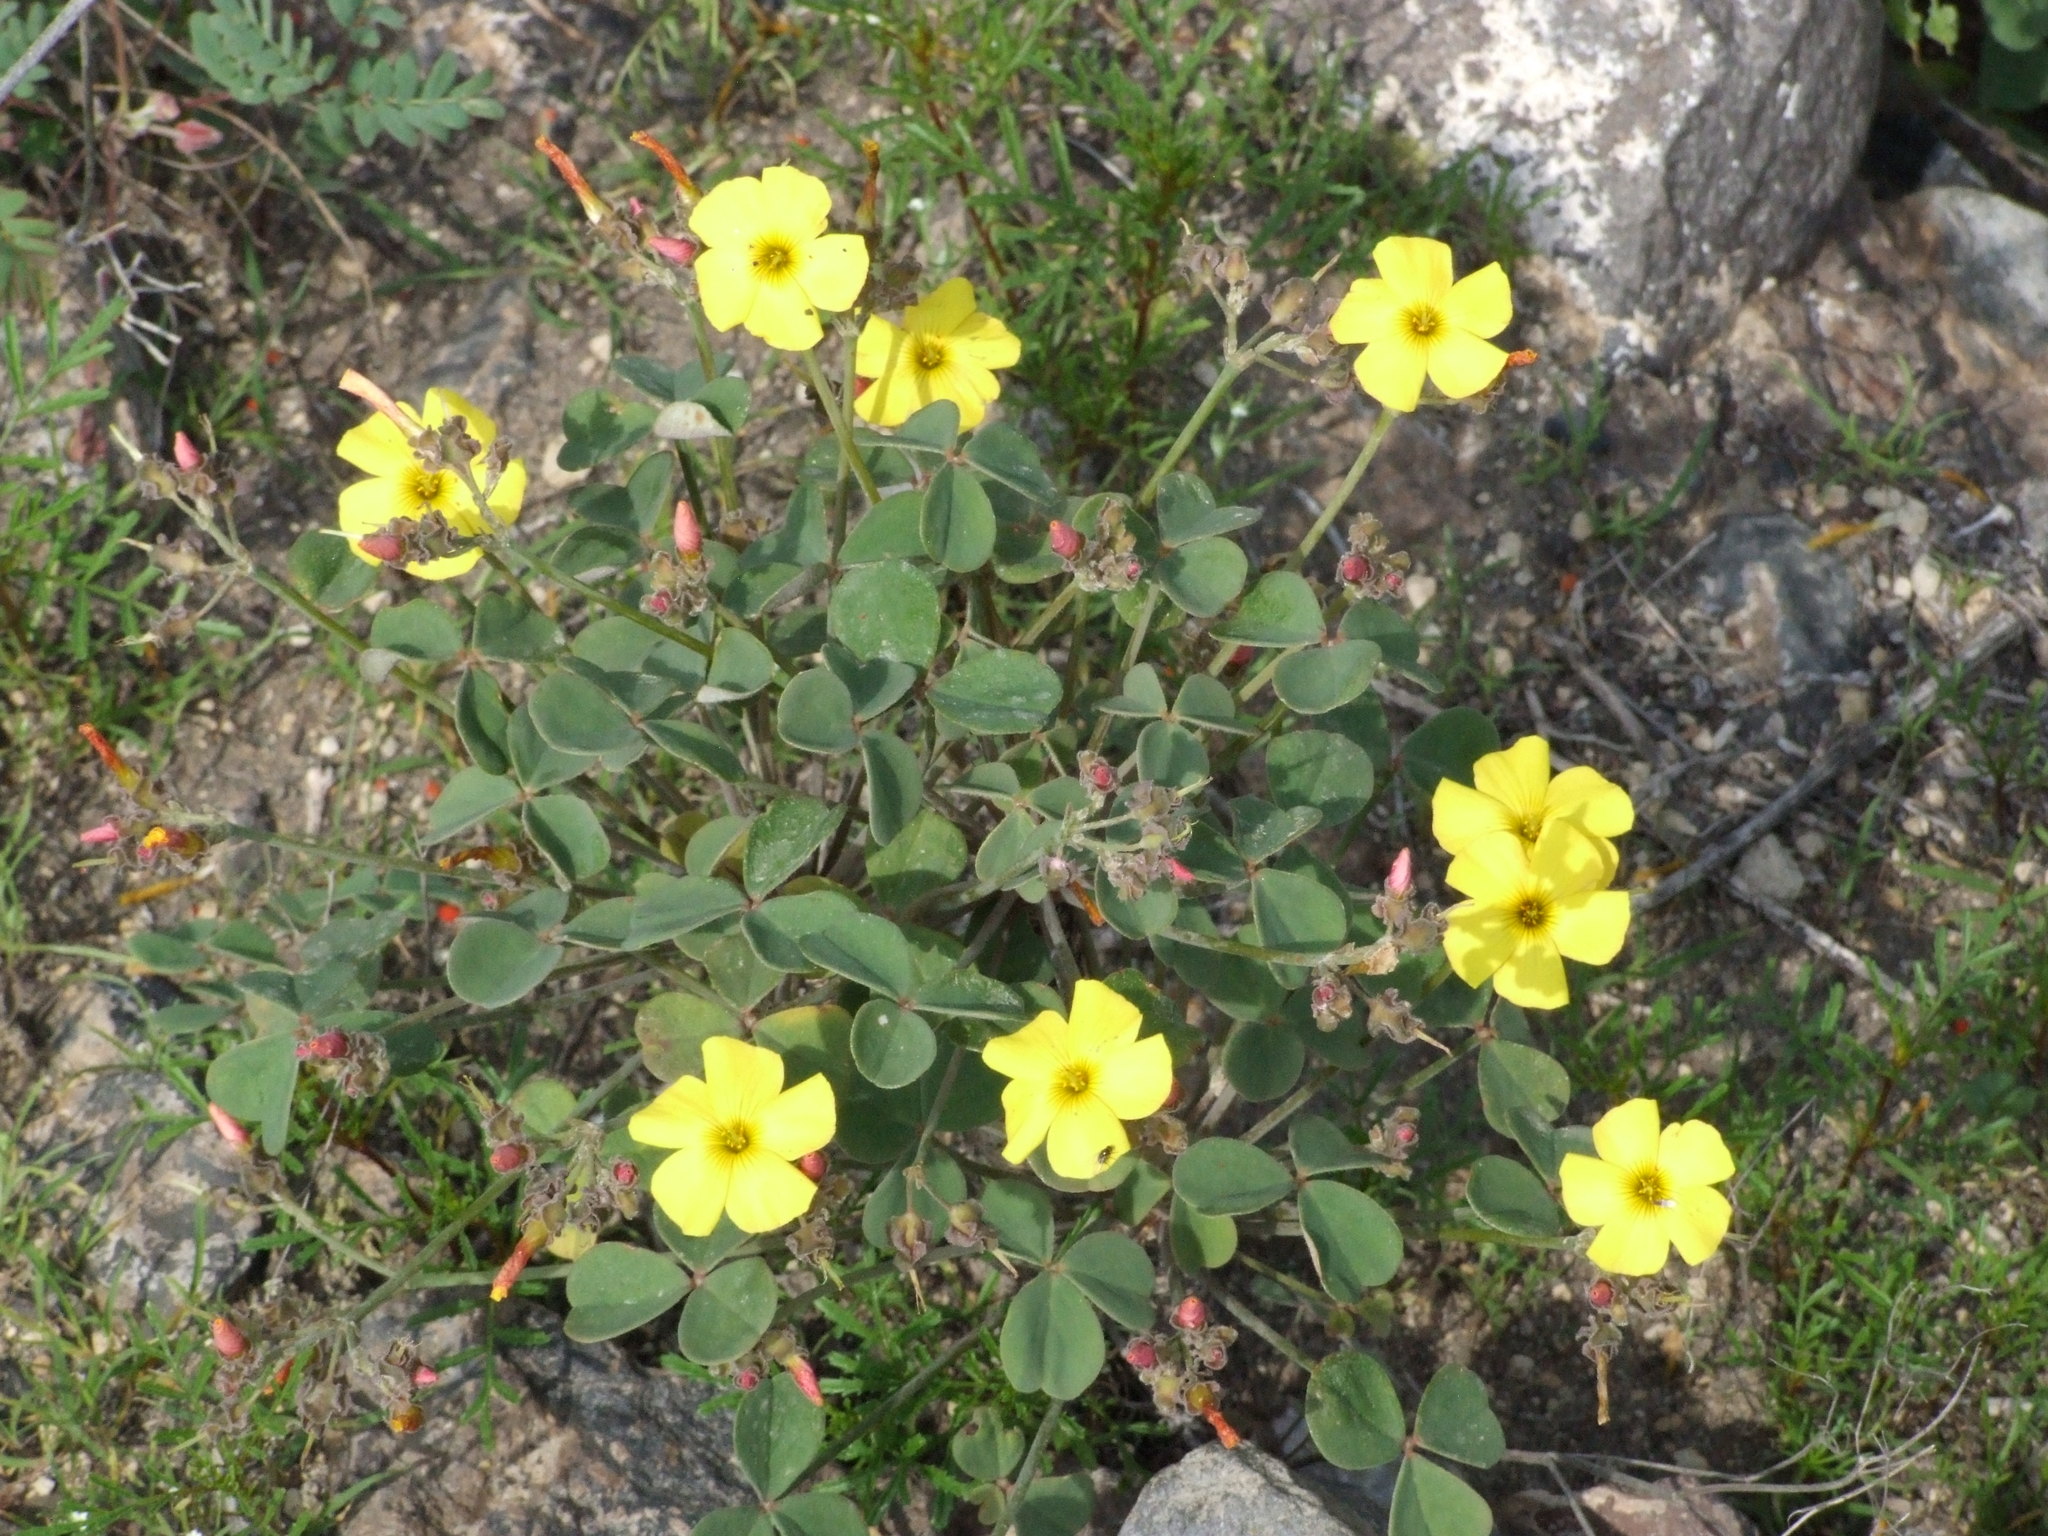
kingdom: Plantae
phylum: Tracheophyta
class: Magnoliopsida
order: Oxalidales
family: Oxalidaceae
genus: Oxalis
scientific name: Oxalis megalorrhiza
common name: Fleshy yellow-sorrel
